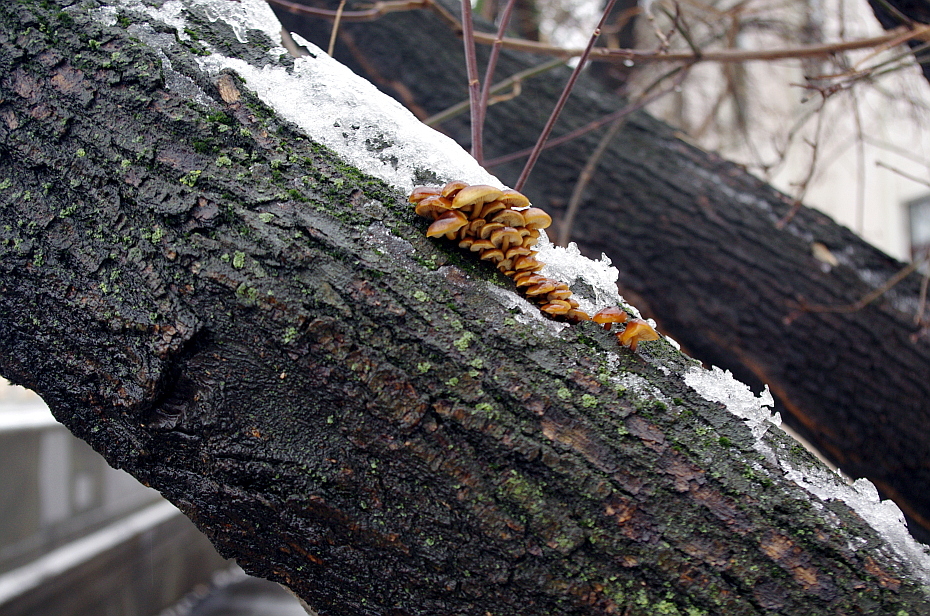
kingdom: Fungi
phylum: Basidiomycota
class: Agaricomycetes
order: Agaricales
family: Physalacriaceae
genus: Flammulina
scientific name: Flammulina
